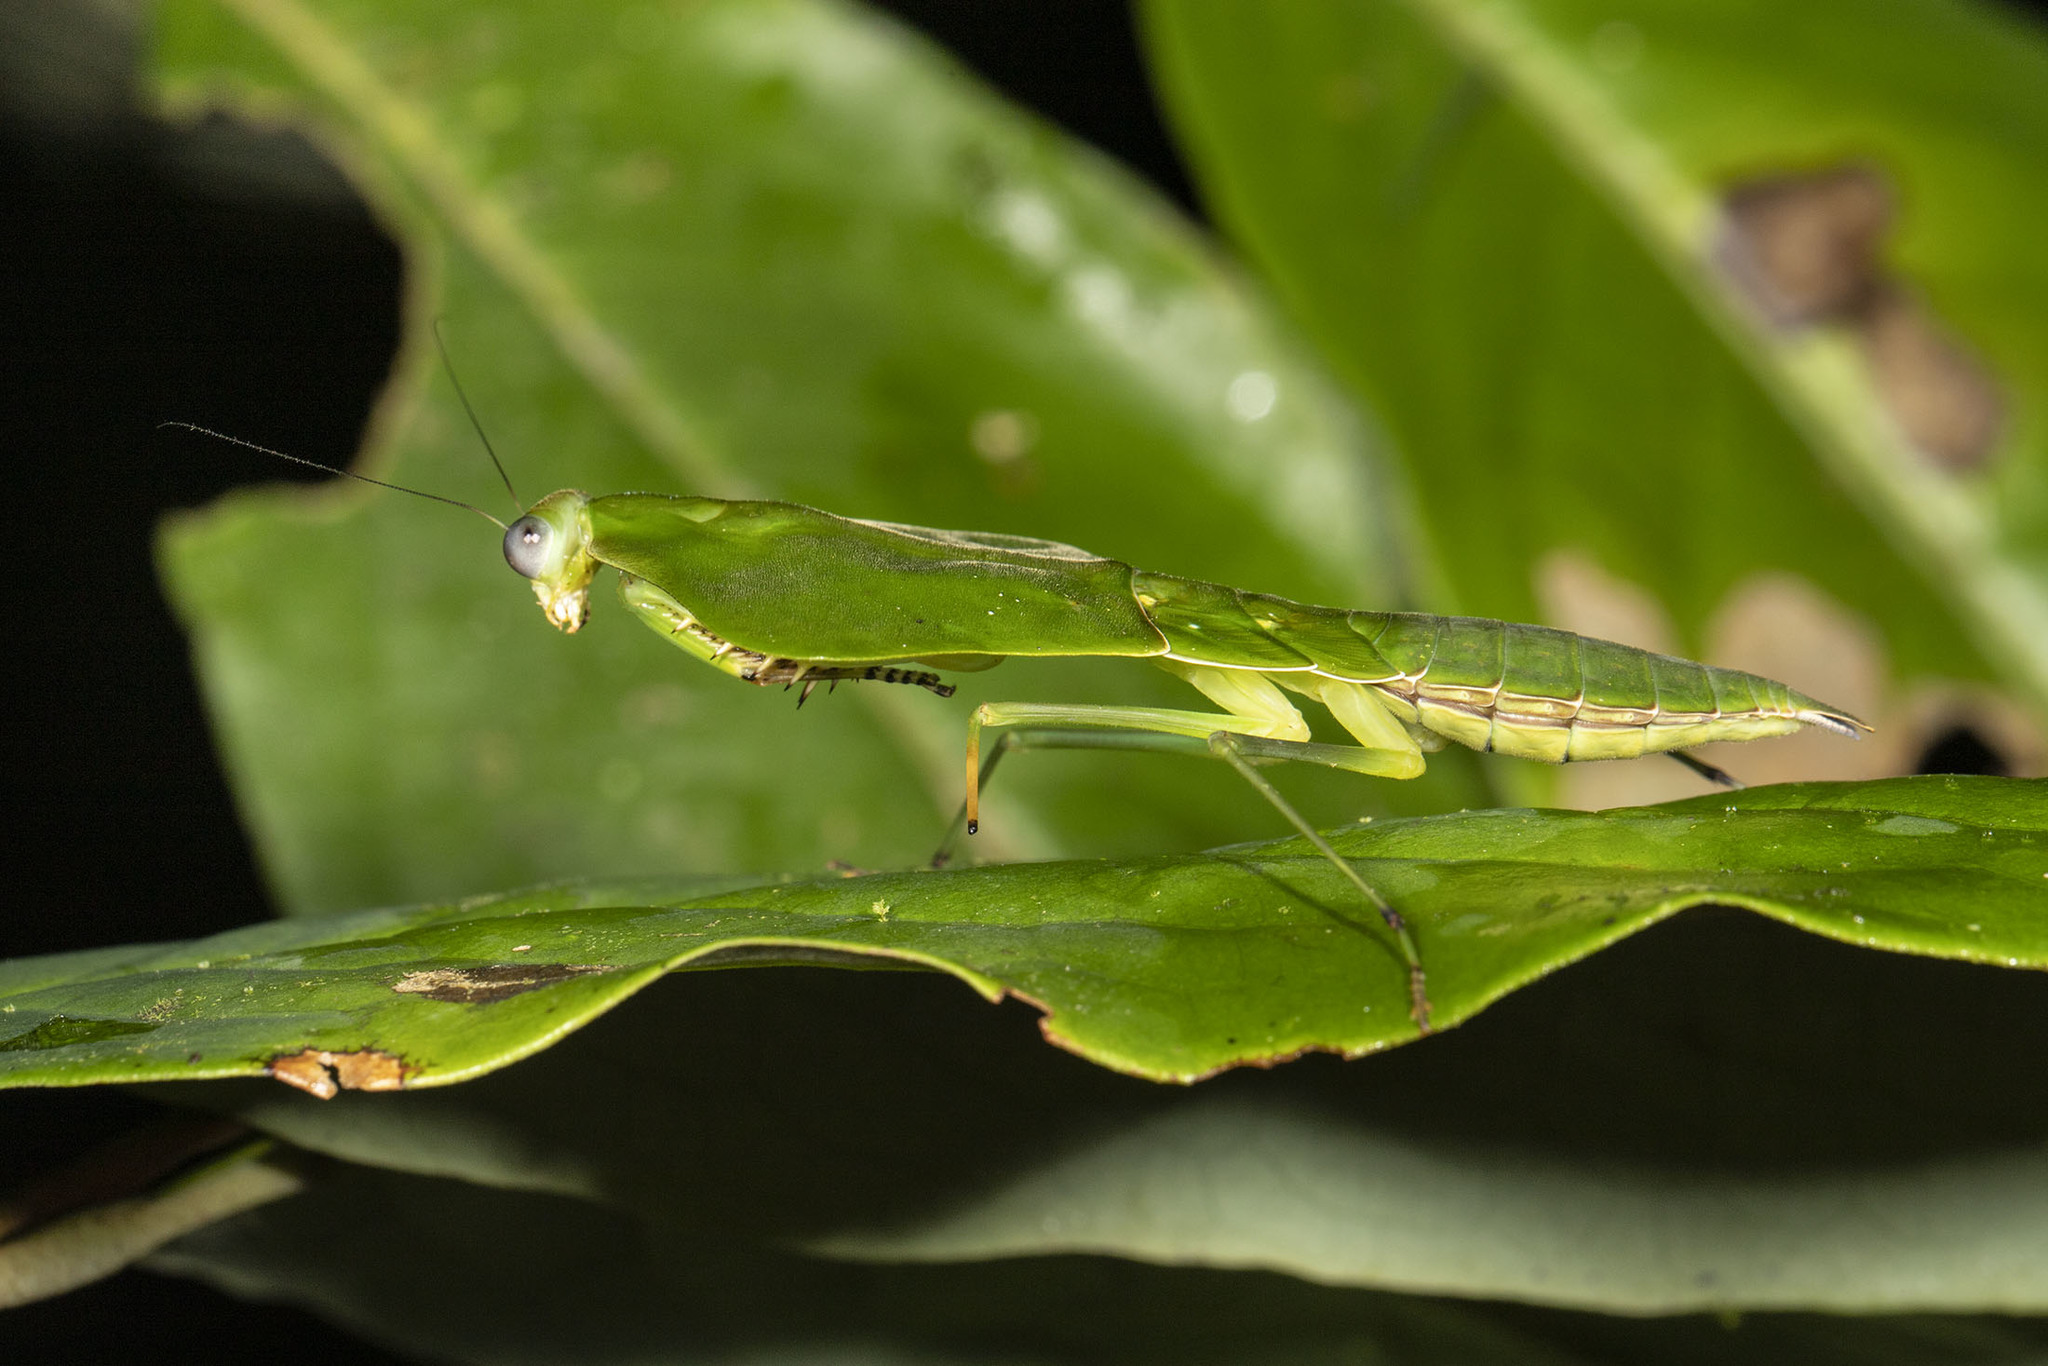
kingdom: Animalia
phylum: Arthropoda
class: Insecta
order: Mantodea
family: Mantidae
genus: Choeradodis
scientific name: Choeradodis stalii
